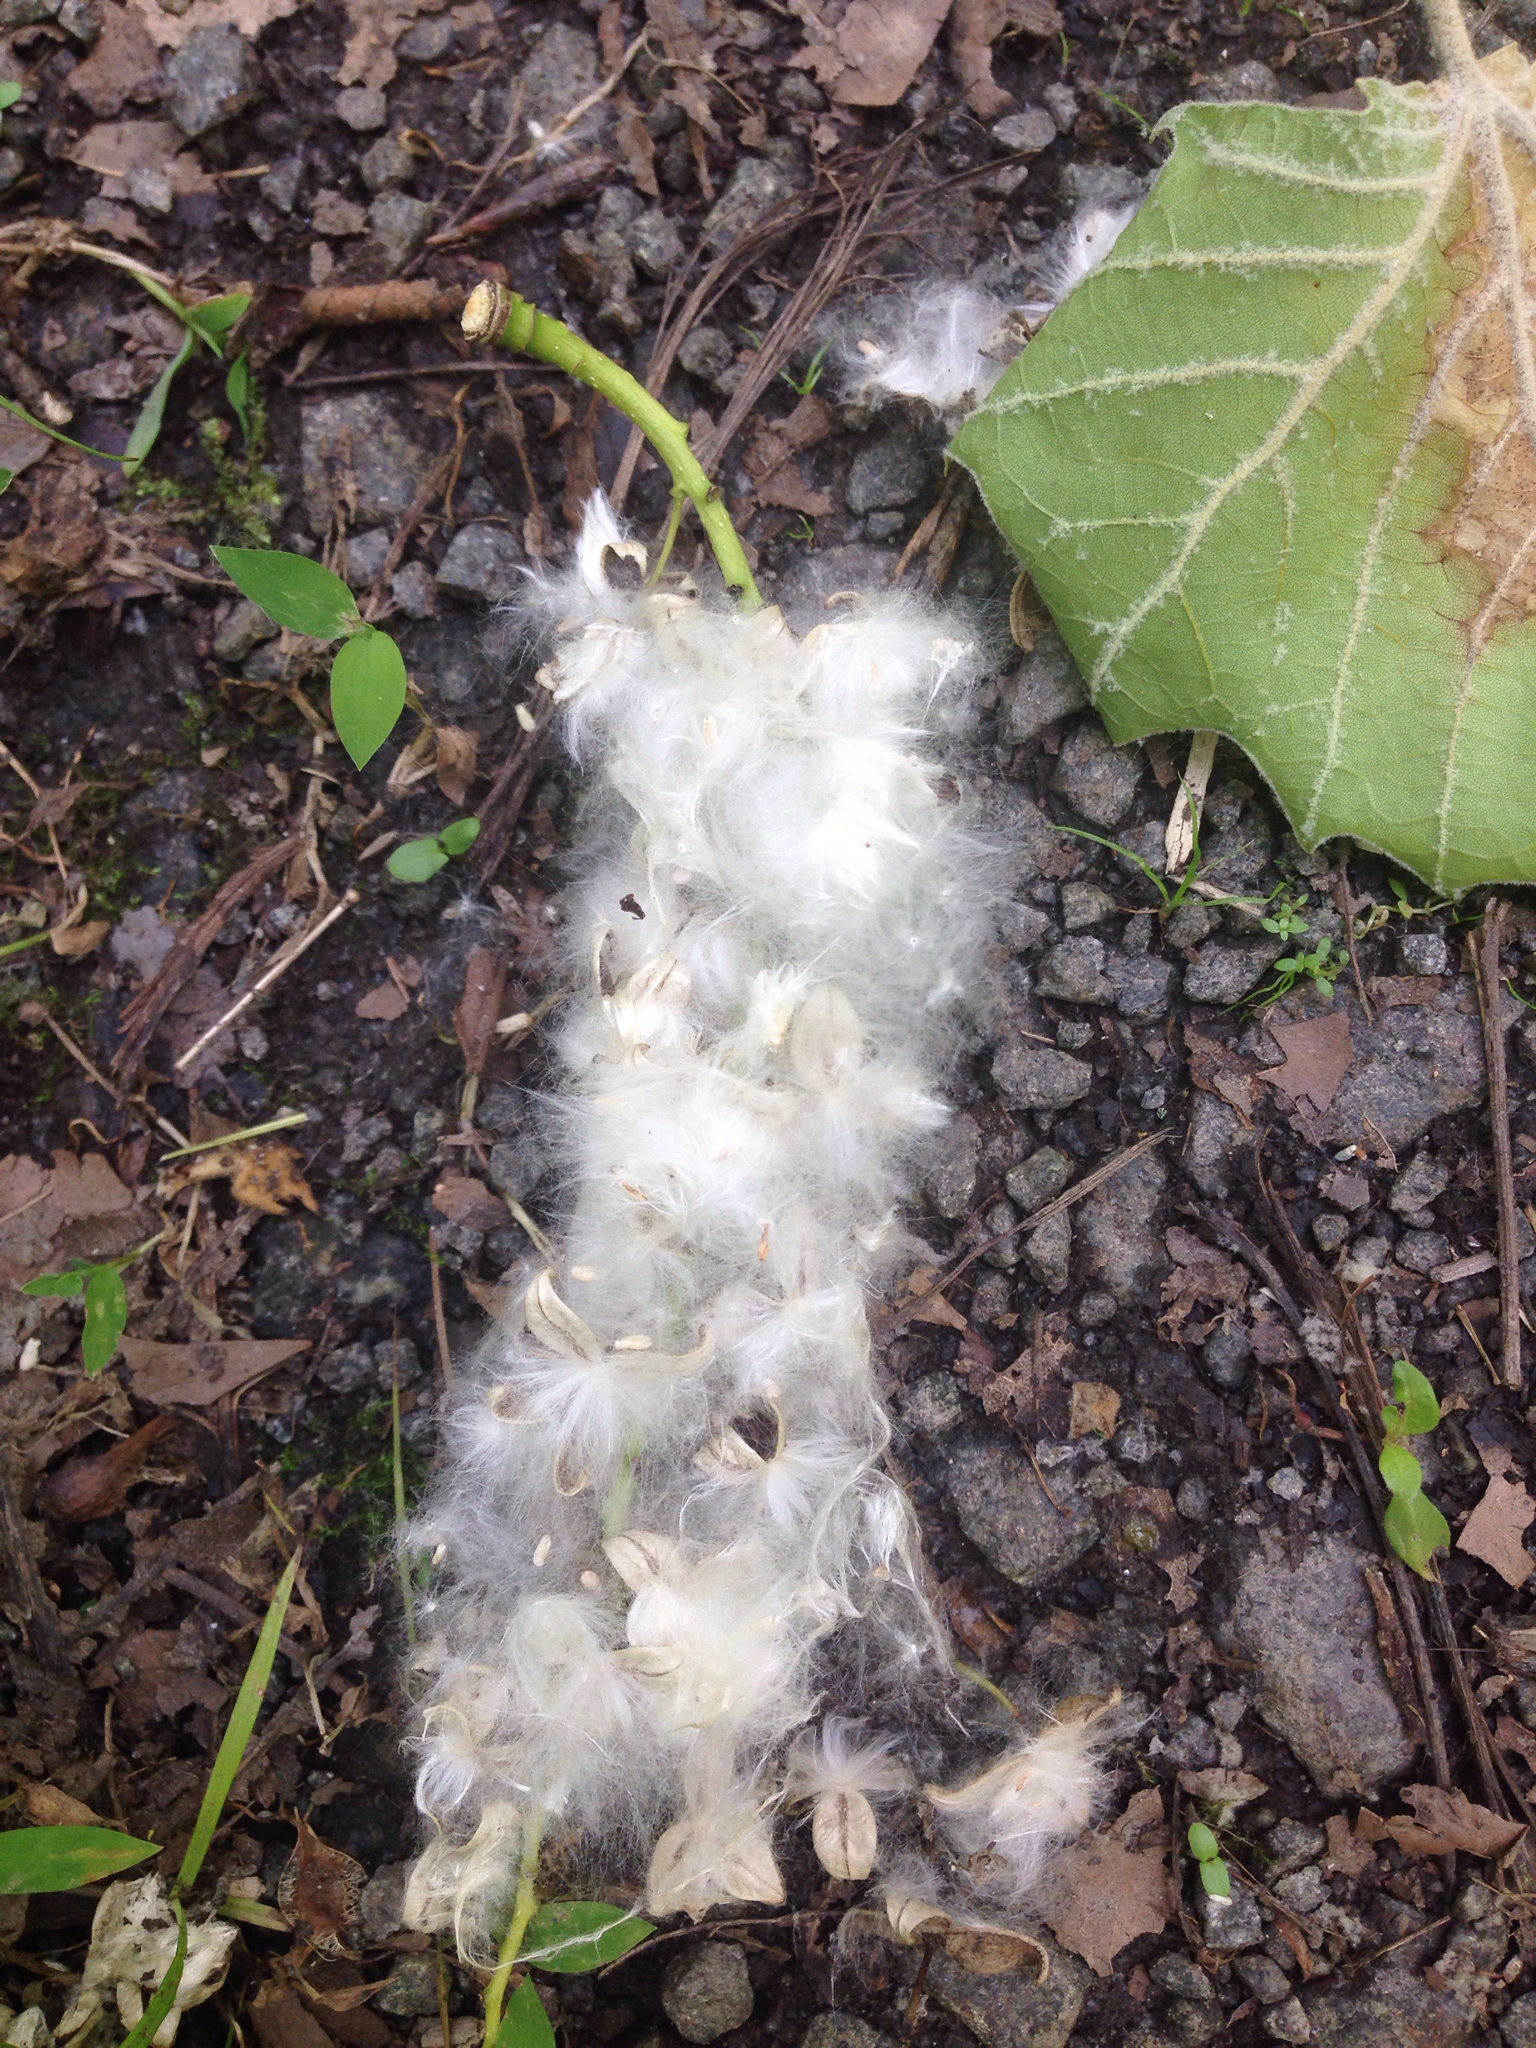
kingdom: Plantae
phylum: Tracheophyta
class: Magnoliopsida
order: Malpighiales
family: Salicaceae
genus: Populus
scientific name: Populus deltoides
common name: Eastern cottonwood
